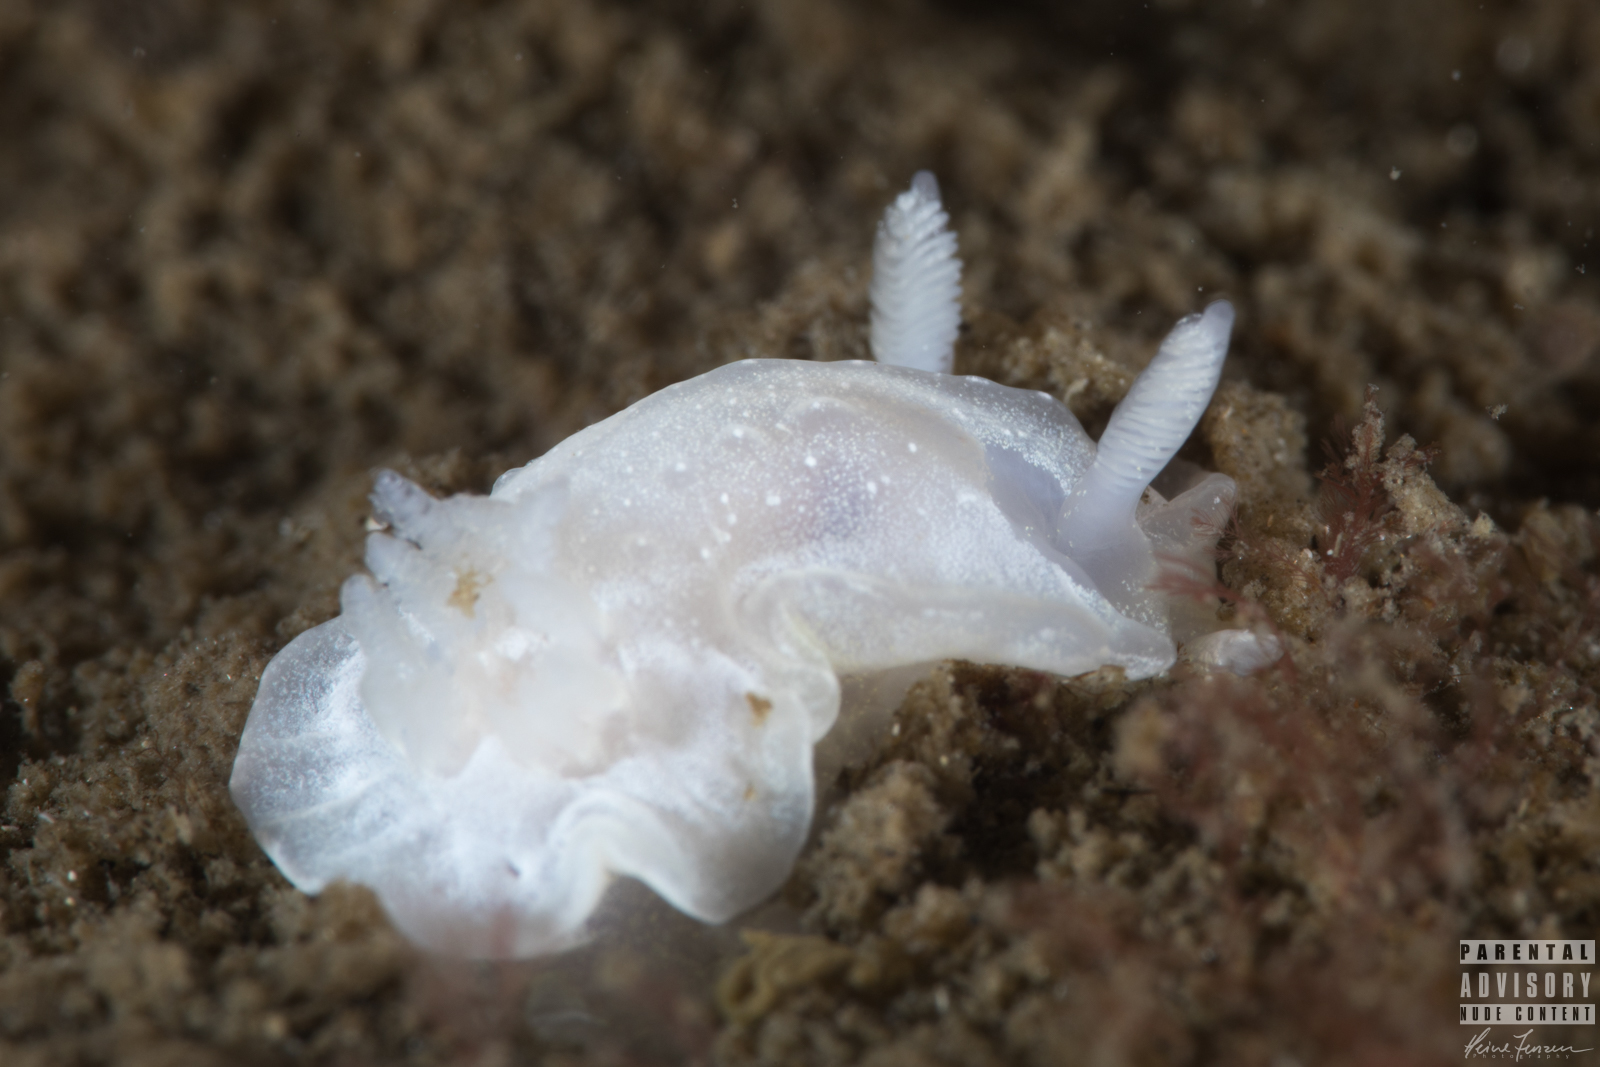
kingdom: Animalia
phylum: Mollusca
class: Gastropoda
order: Nudibranchia
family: Goniodorididae
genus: Okenia
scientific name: Okenia
